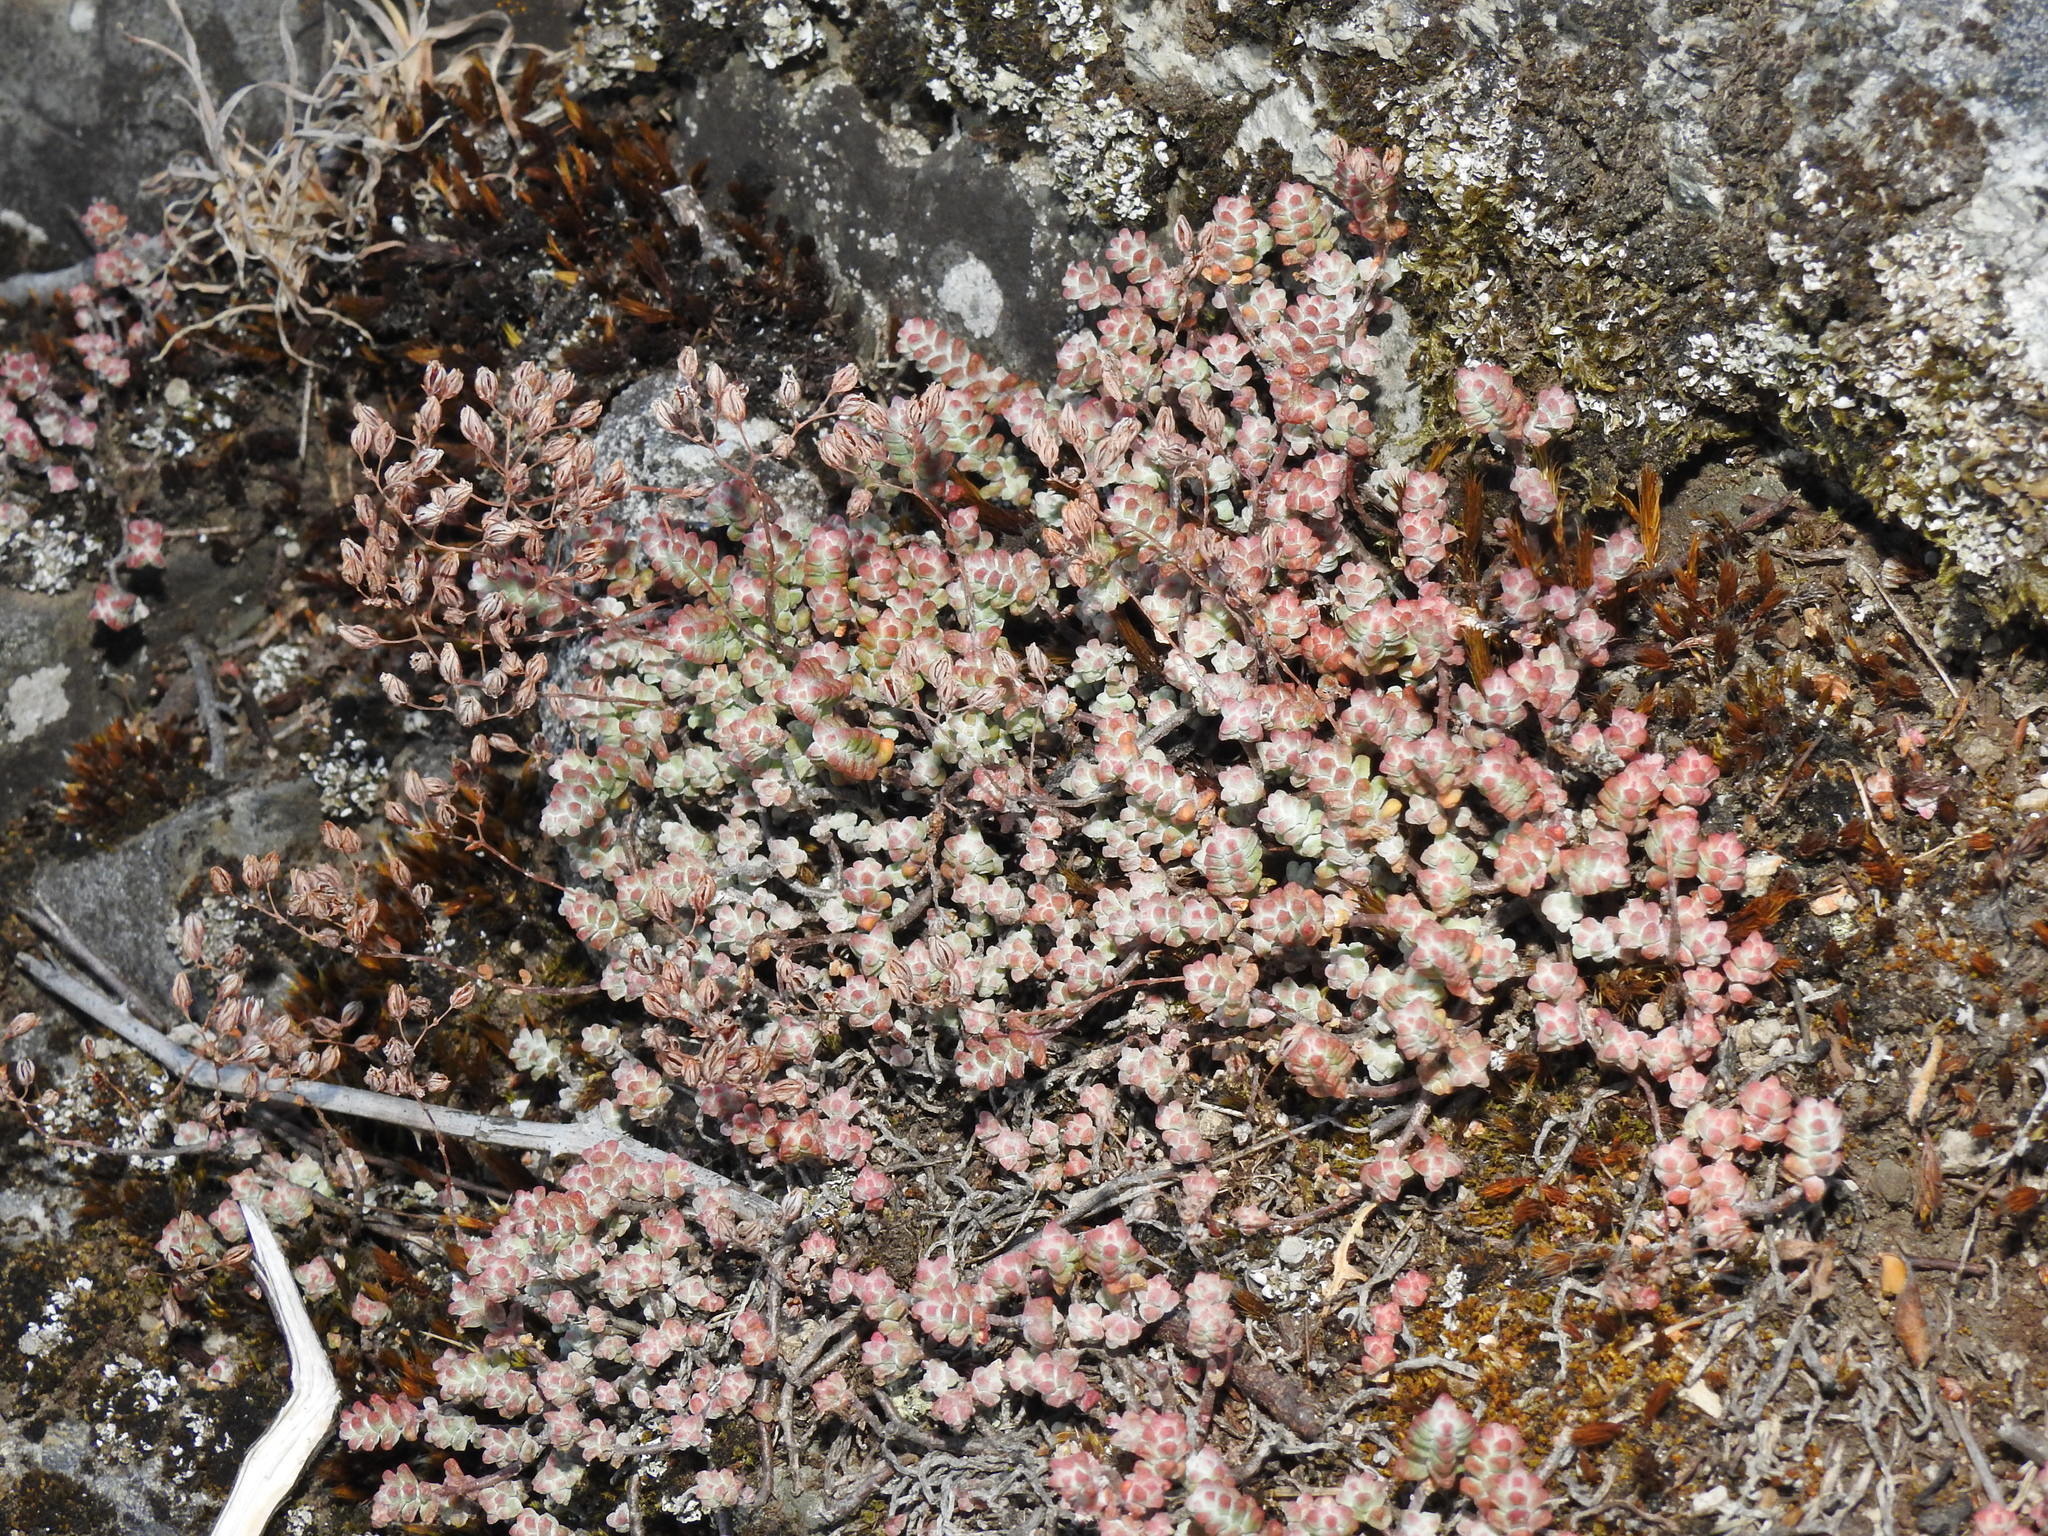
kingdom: Plantae
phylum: Tracheophyta
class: Magnoliopsida
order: Saxifragales
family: Crassulaceae
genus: Sedum
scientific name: Sedum brevifolium
